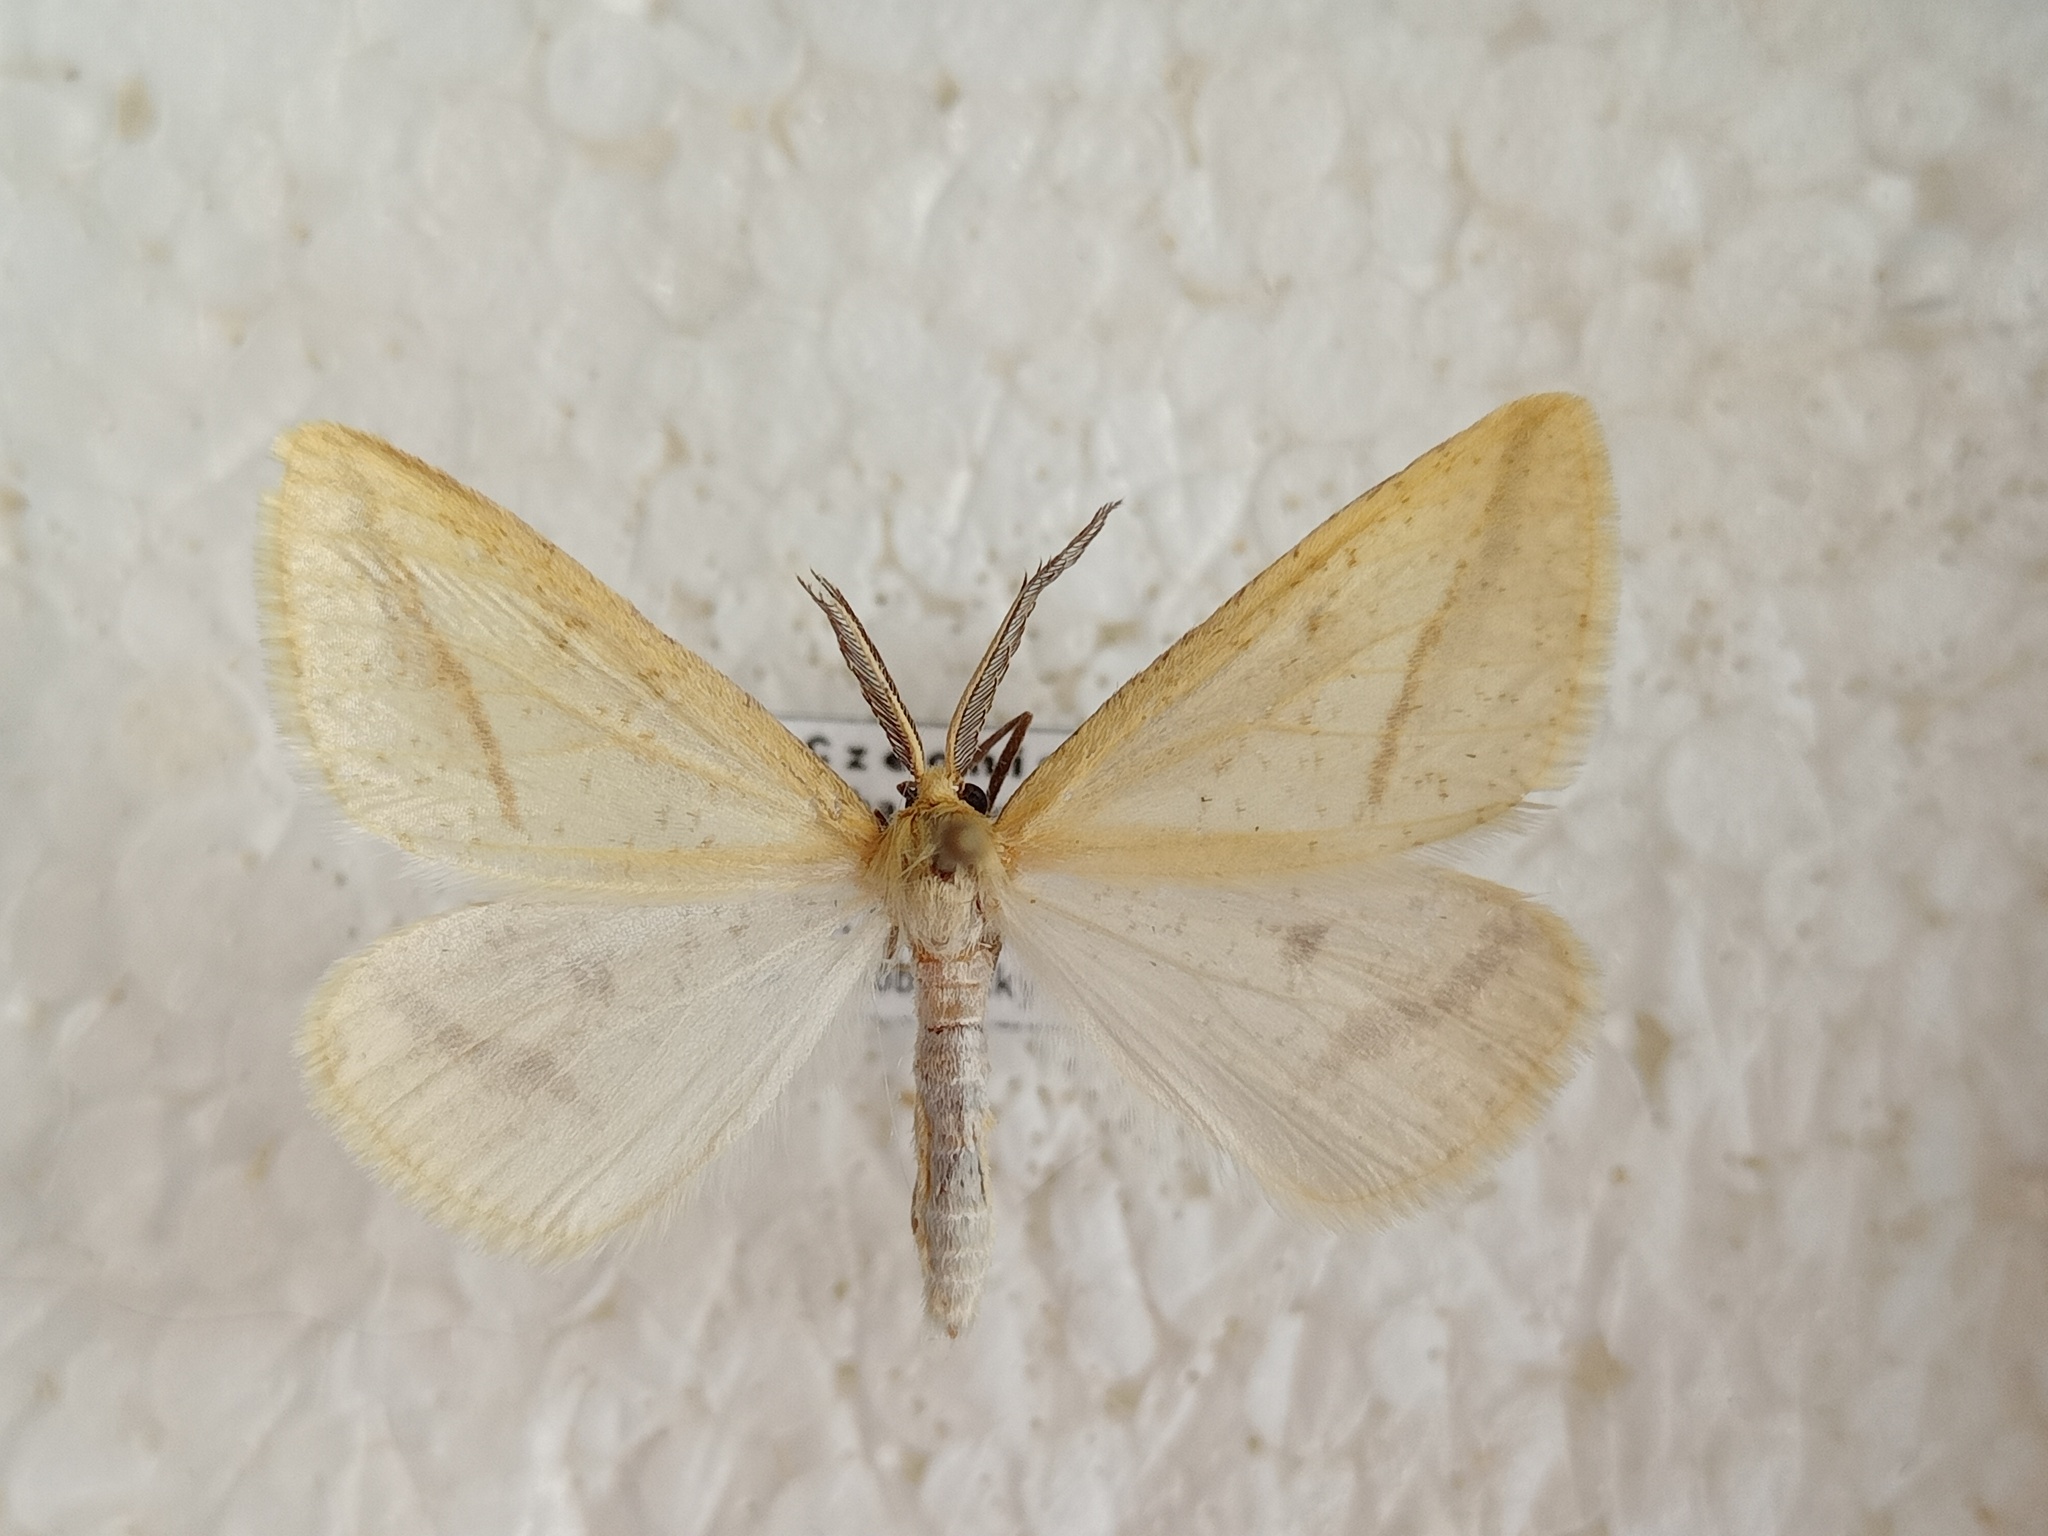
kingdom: Animalia
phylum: Arthropoda
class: Insecta
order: Lepidoptera
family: Geometridae
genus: Aspitates
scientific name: Aspitates gilvaria
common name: Straw belle
